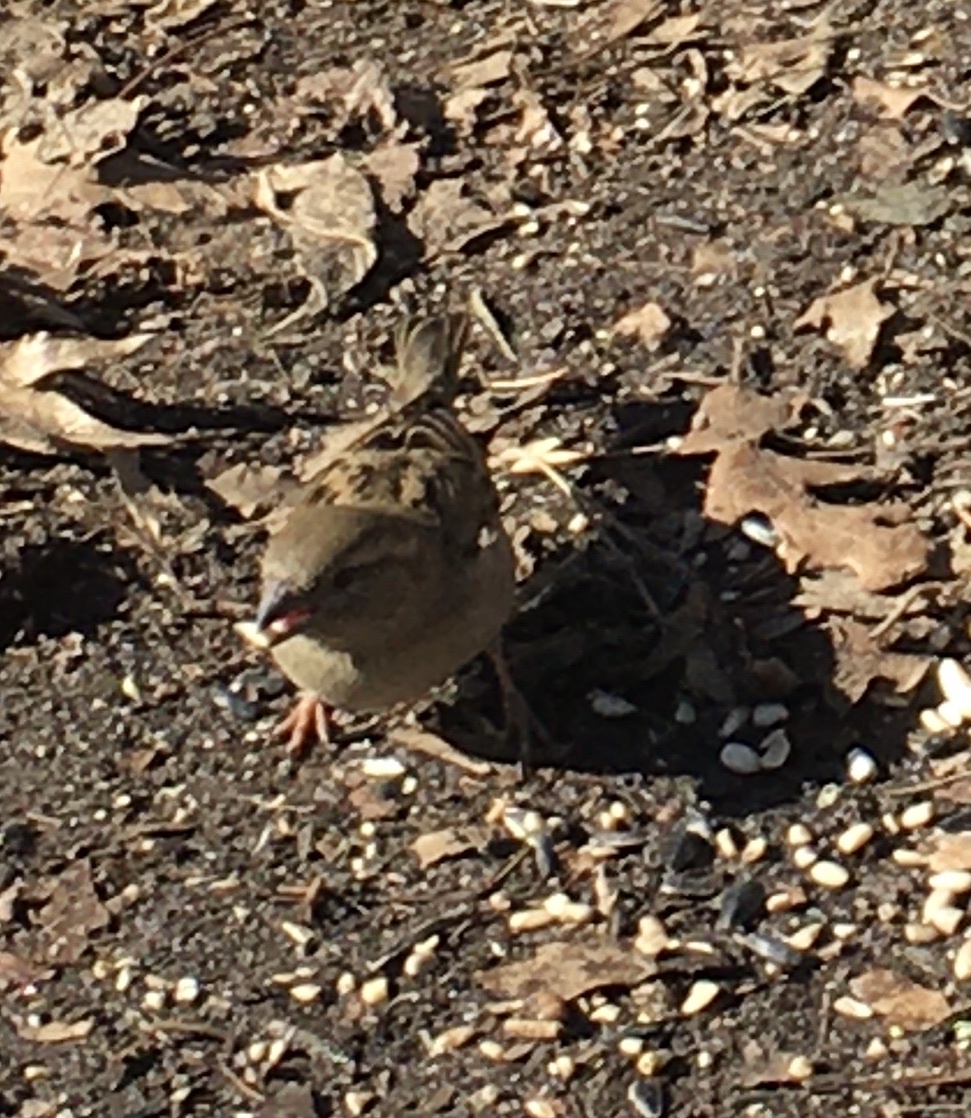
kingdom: Animalia
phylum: Chordata
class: Aves
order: Passeriformes
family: Passeridae
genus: Passer
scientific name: Passer domesticus
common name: House sparrow
